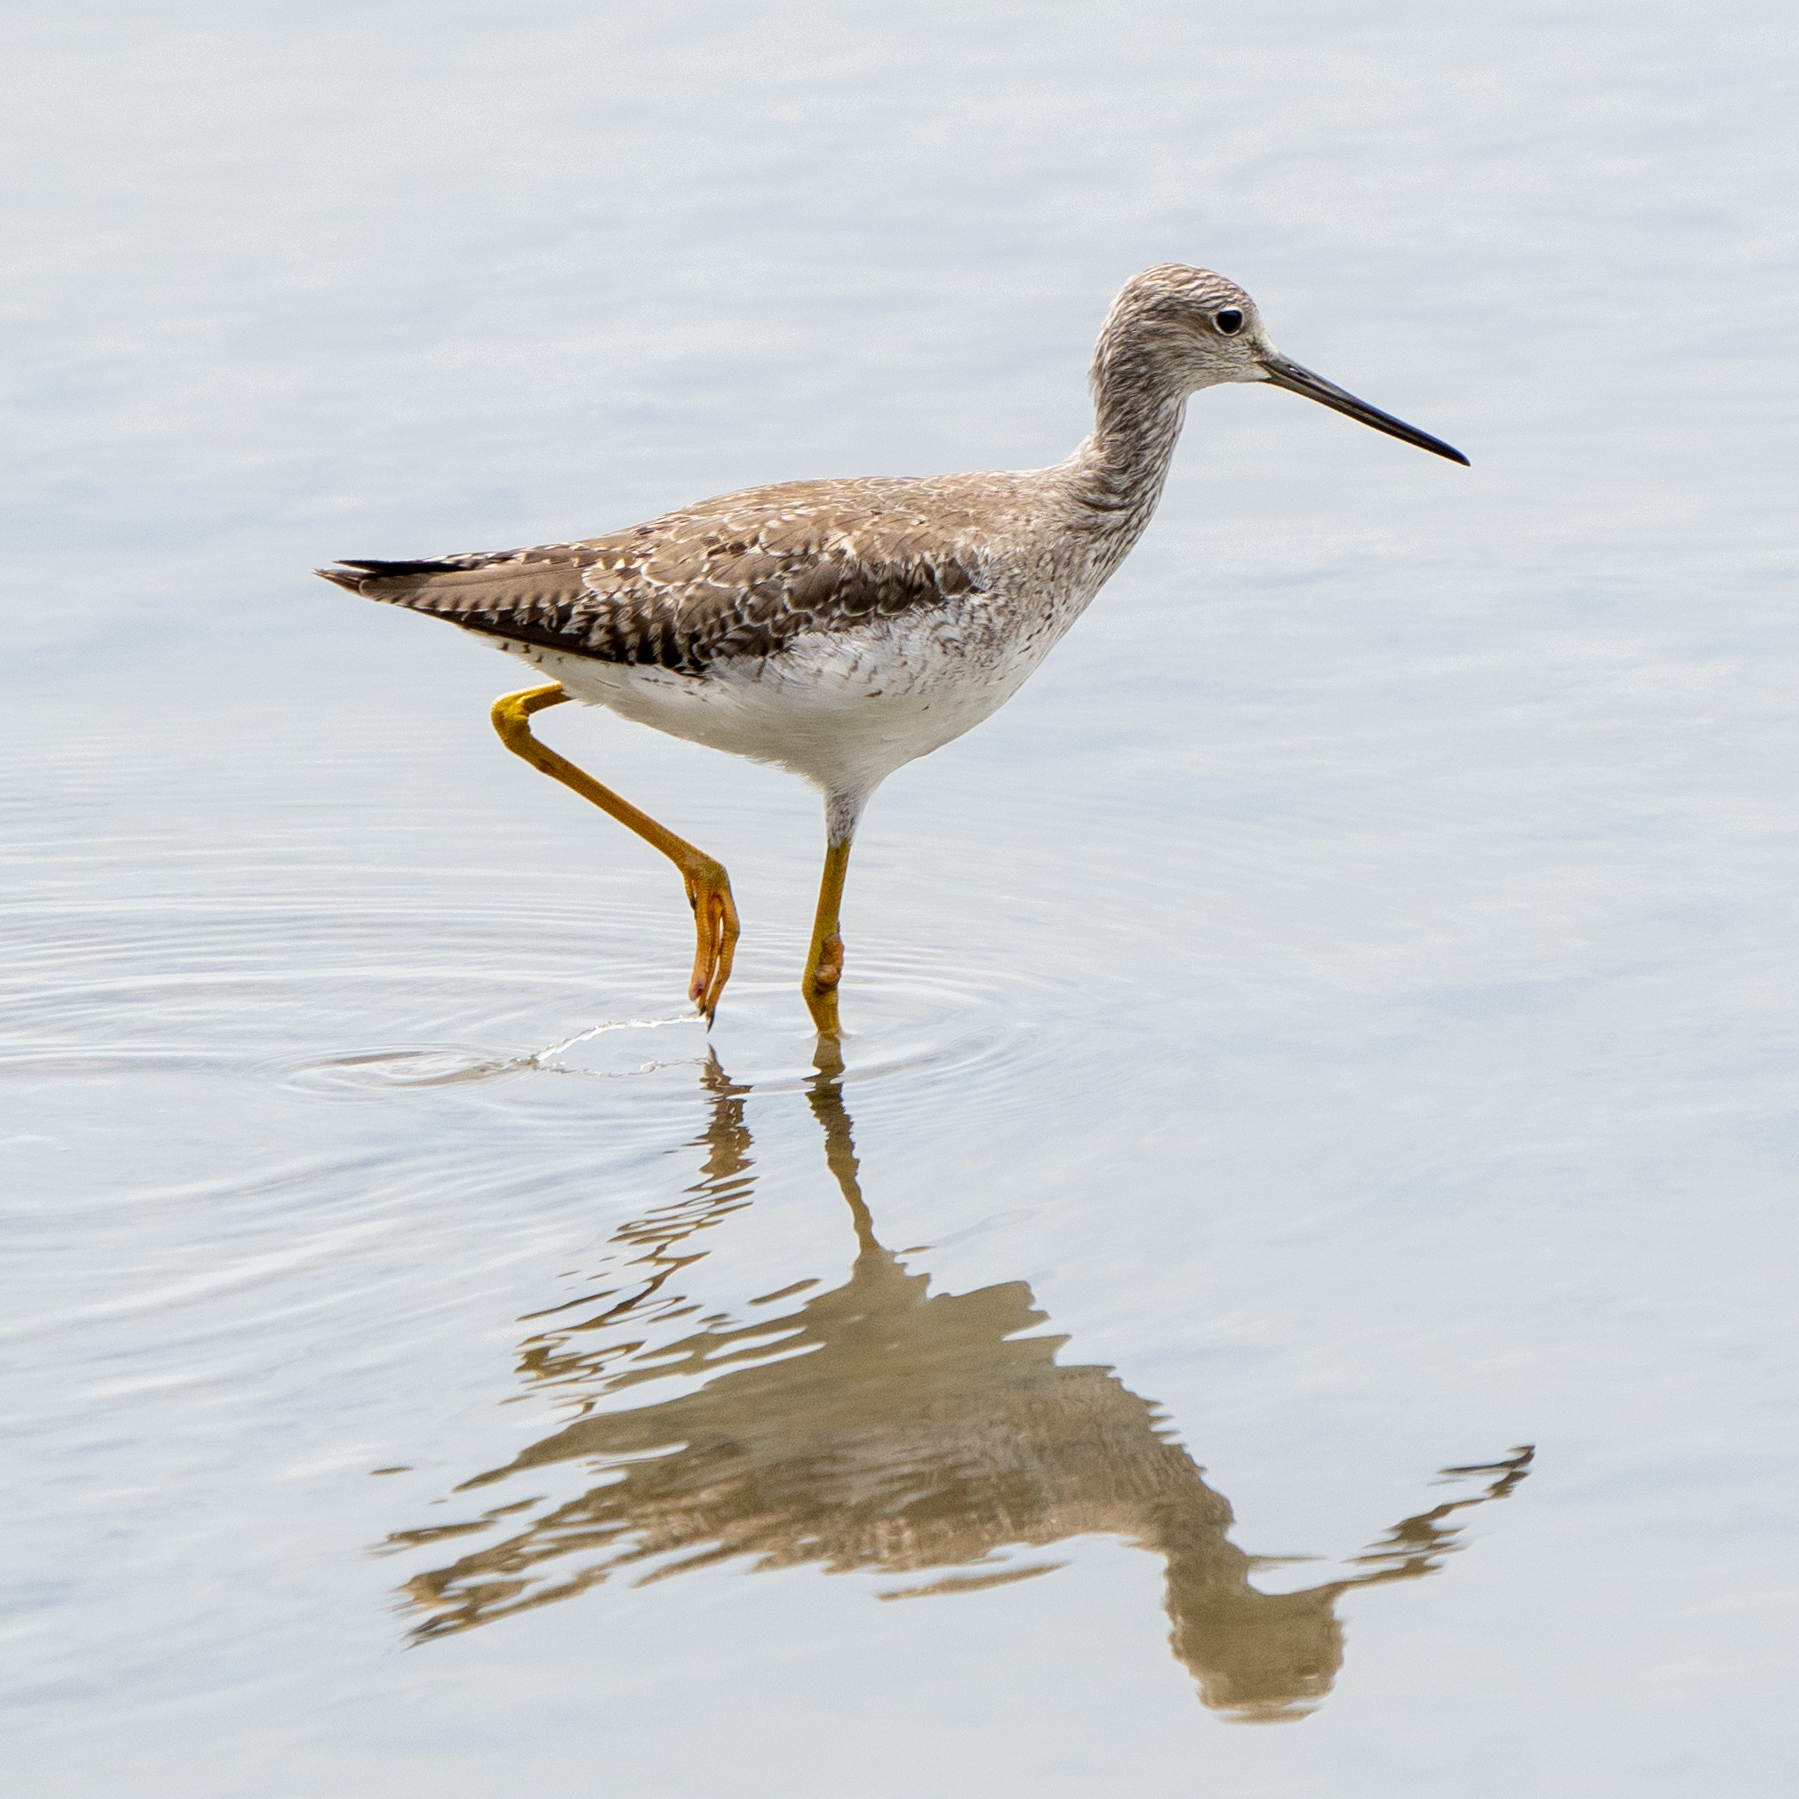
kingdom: Animalia
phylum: Chordata
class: Aves
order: Charadriiformes
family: Scolopacidae
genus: Tringa
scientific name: Tringa melanoleuca
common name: Greater yellowlegs
